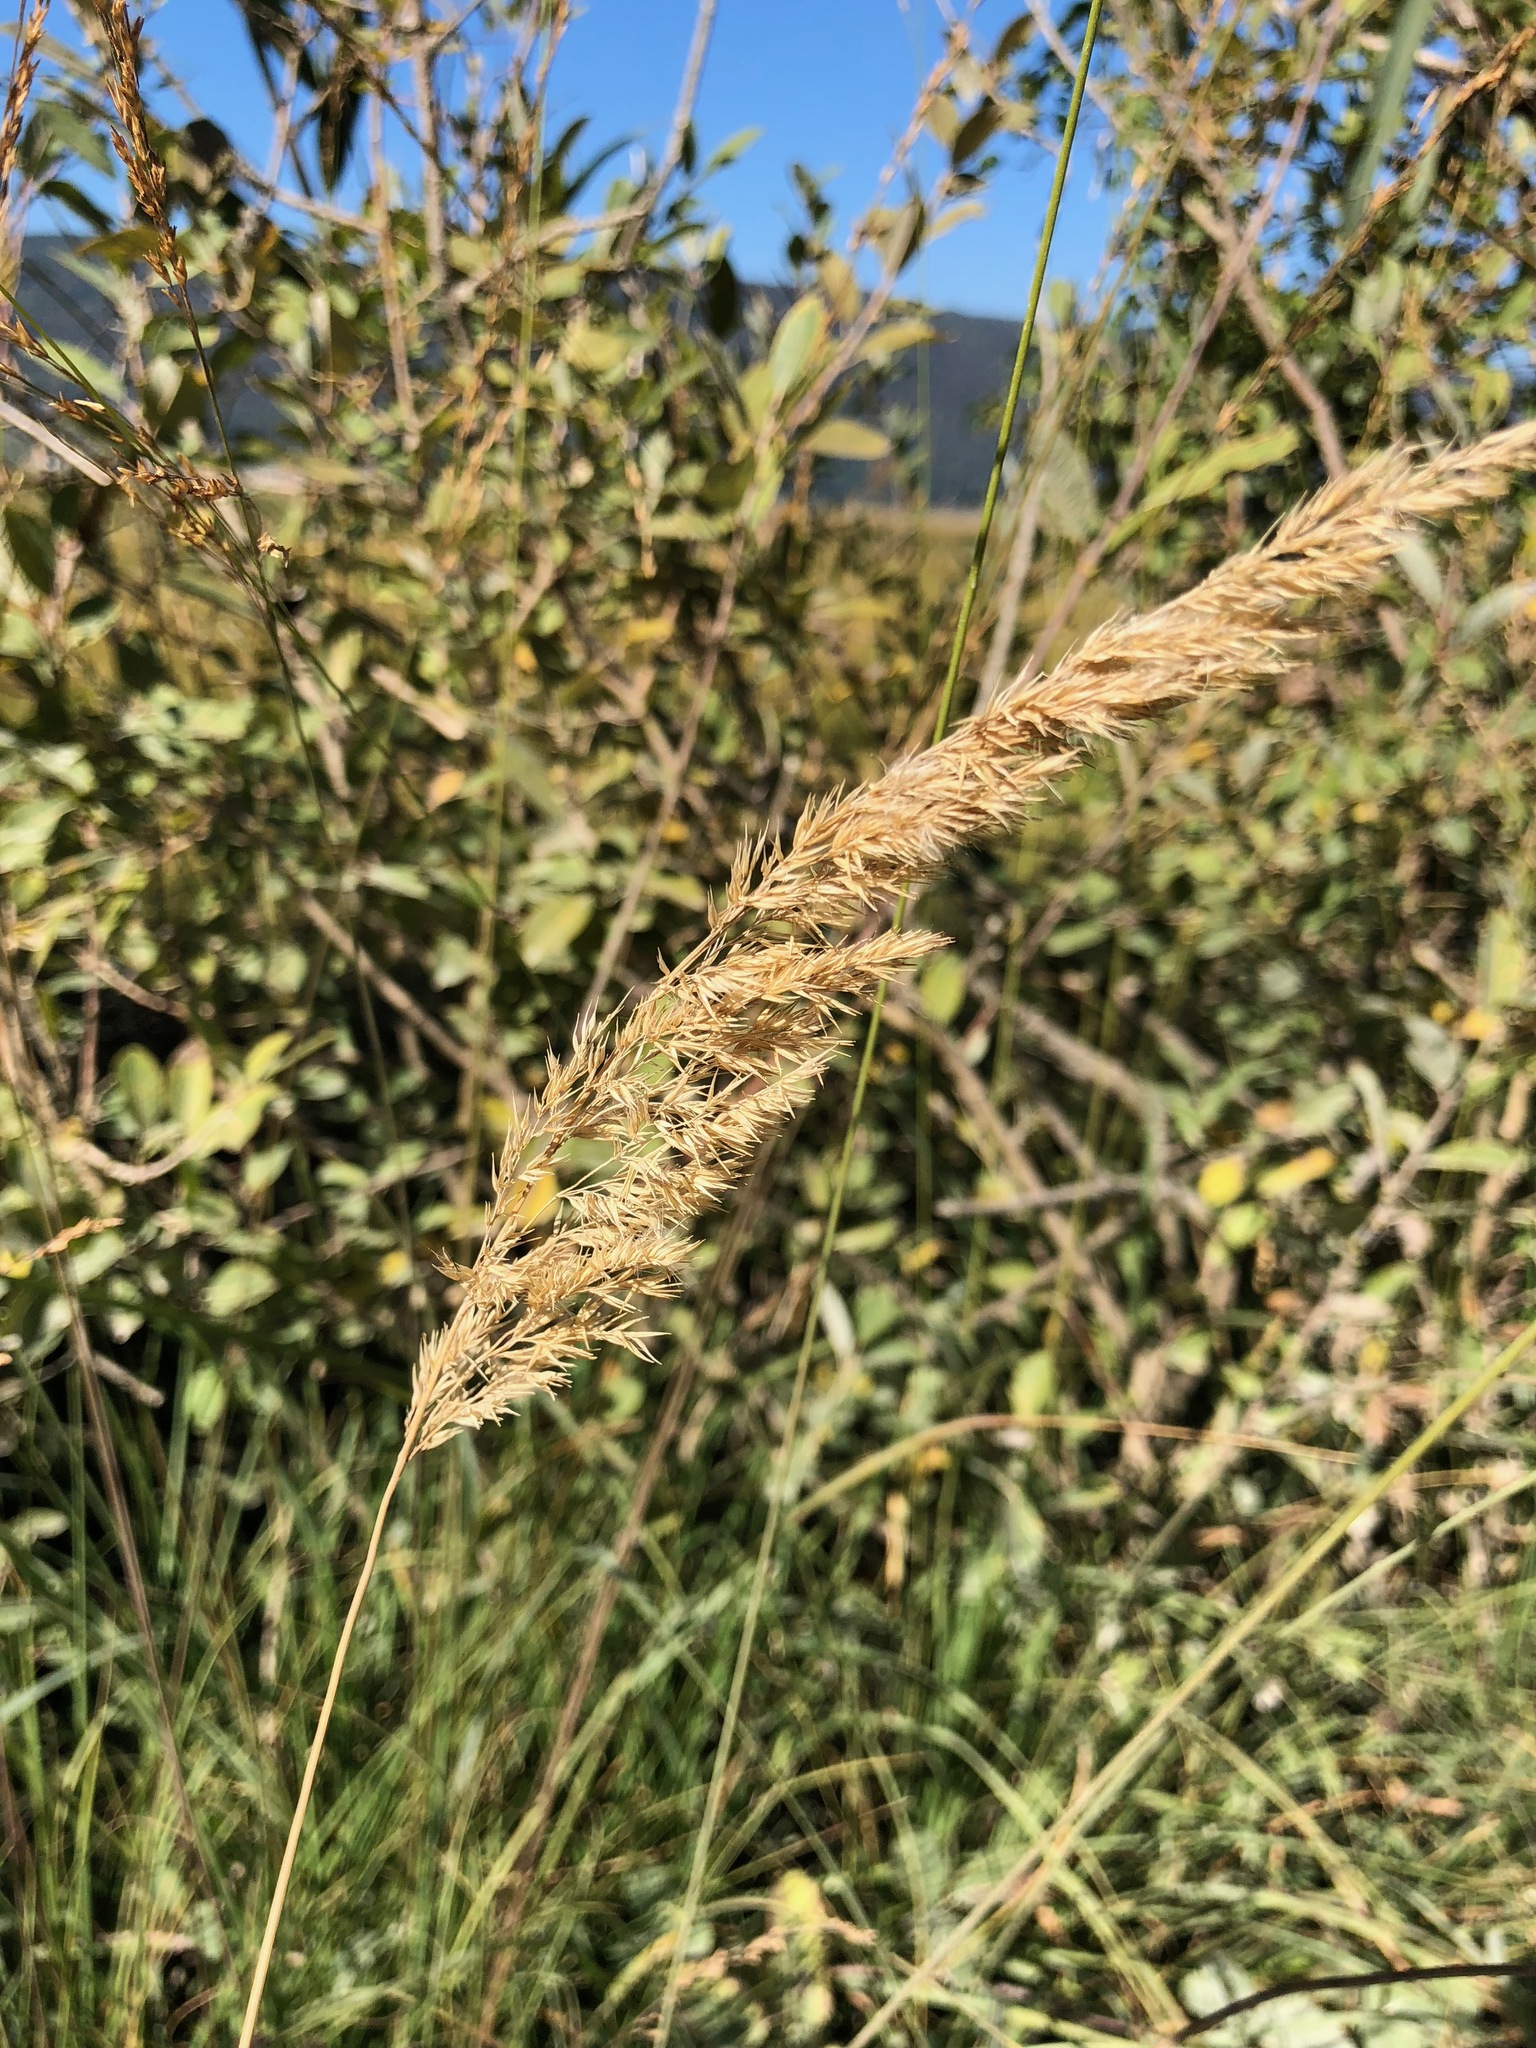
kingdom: Plantae
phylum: Tracheophyta
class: Liliopsida
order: Poales
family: Poaceae
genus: Calamagrostis
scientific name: Calamagrostis epigejos
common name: Wood small-reed
